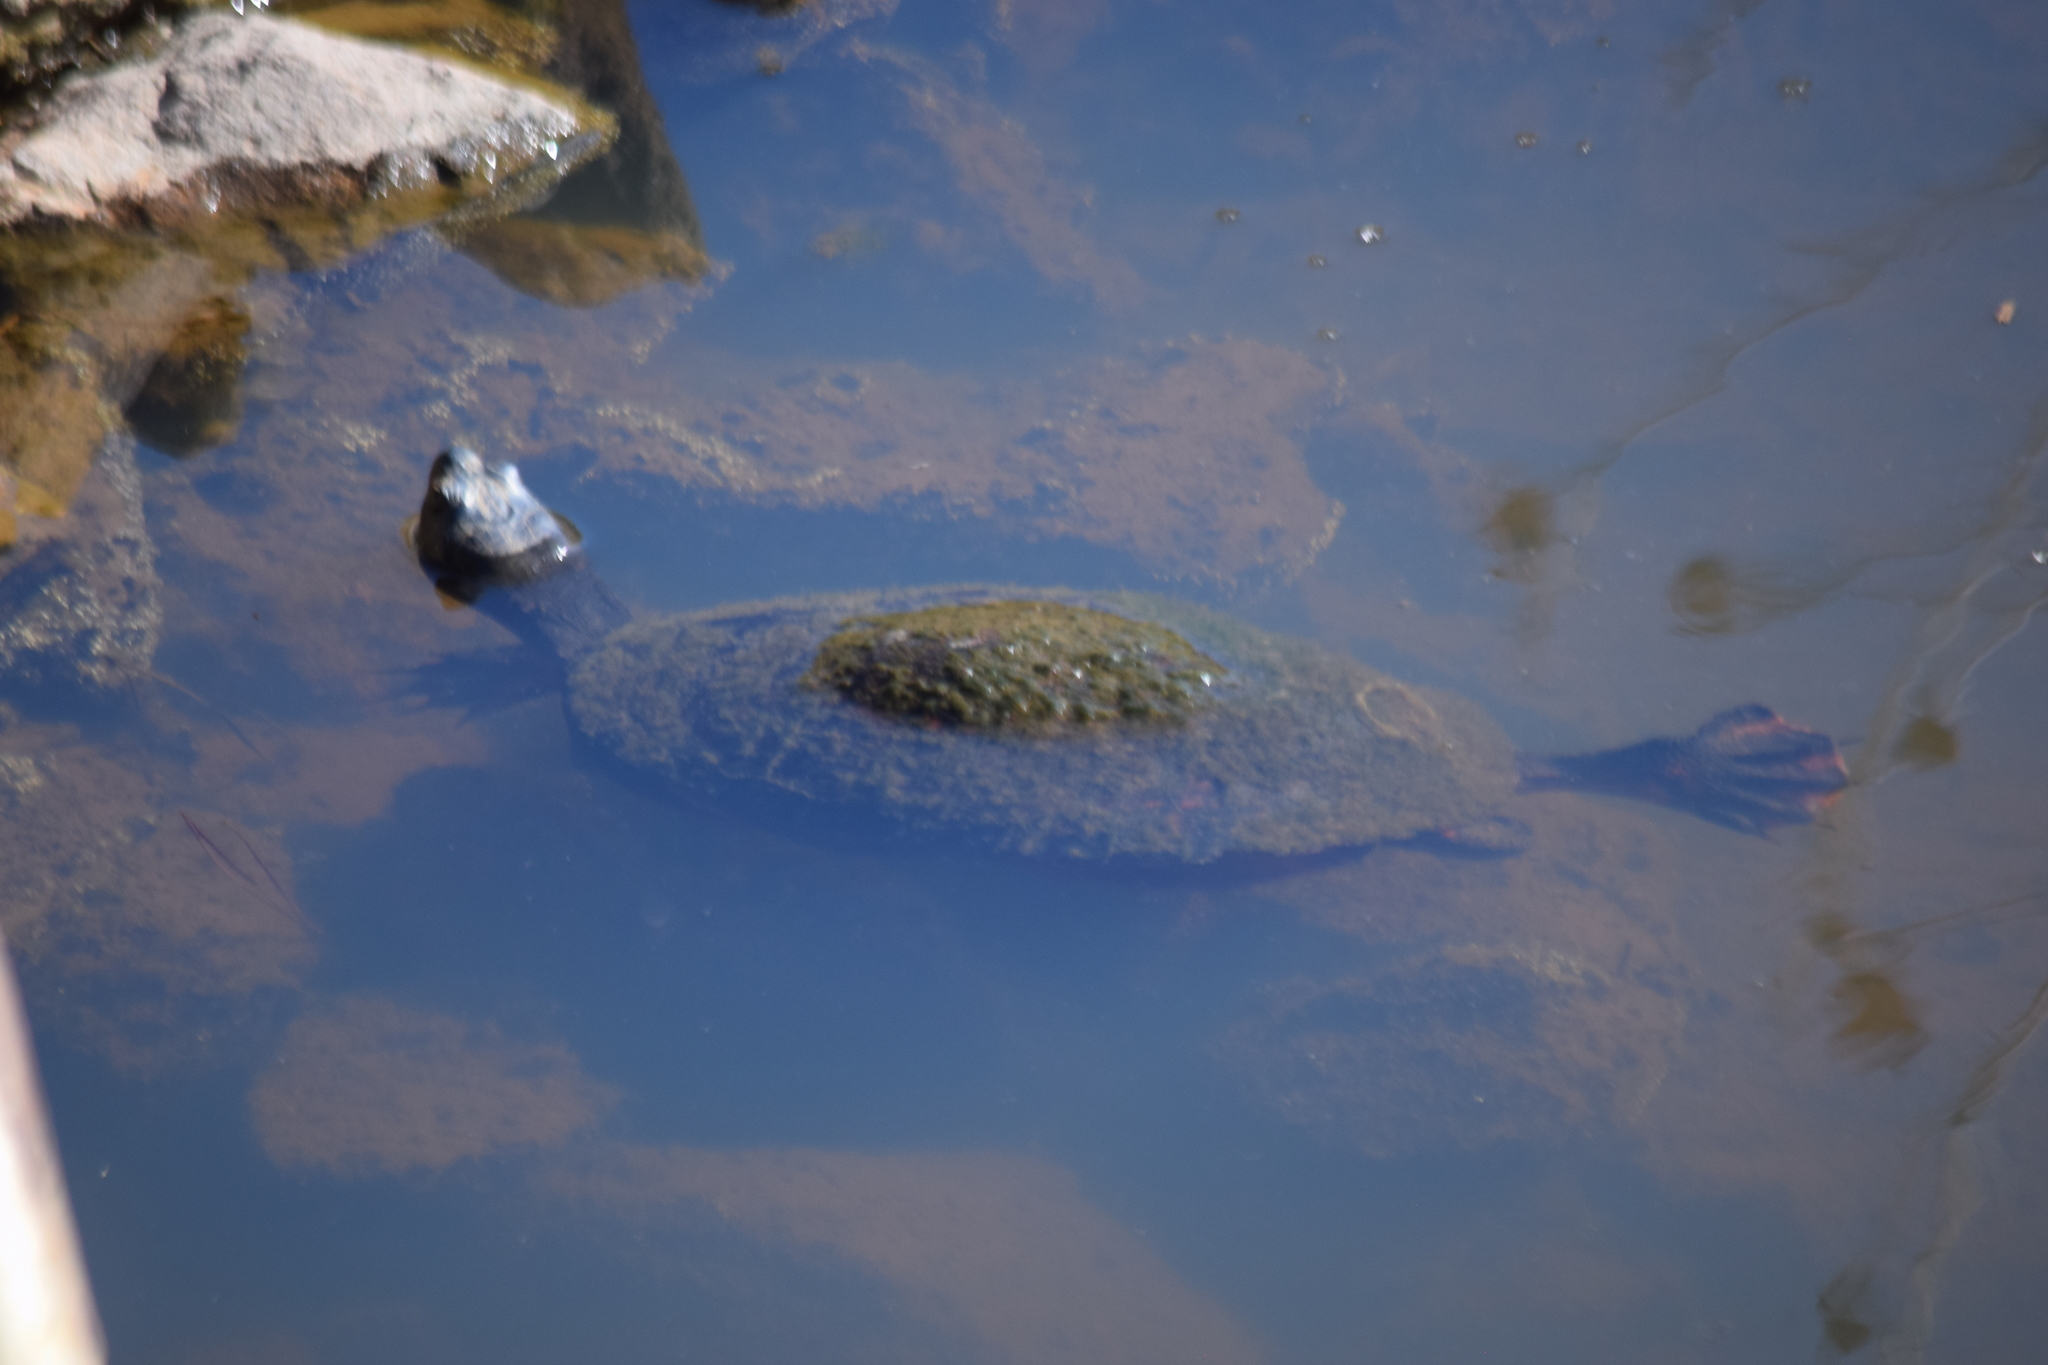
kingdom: Animalia
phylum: Chordata
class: Testudines
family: Emydidae
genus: Pseudemys
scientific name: Pseudemys rubriventris
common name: American red-bellied turtle
